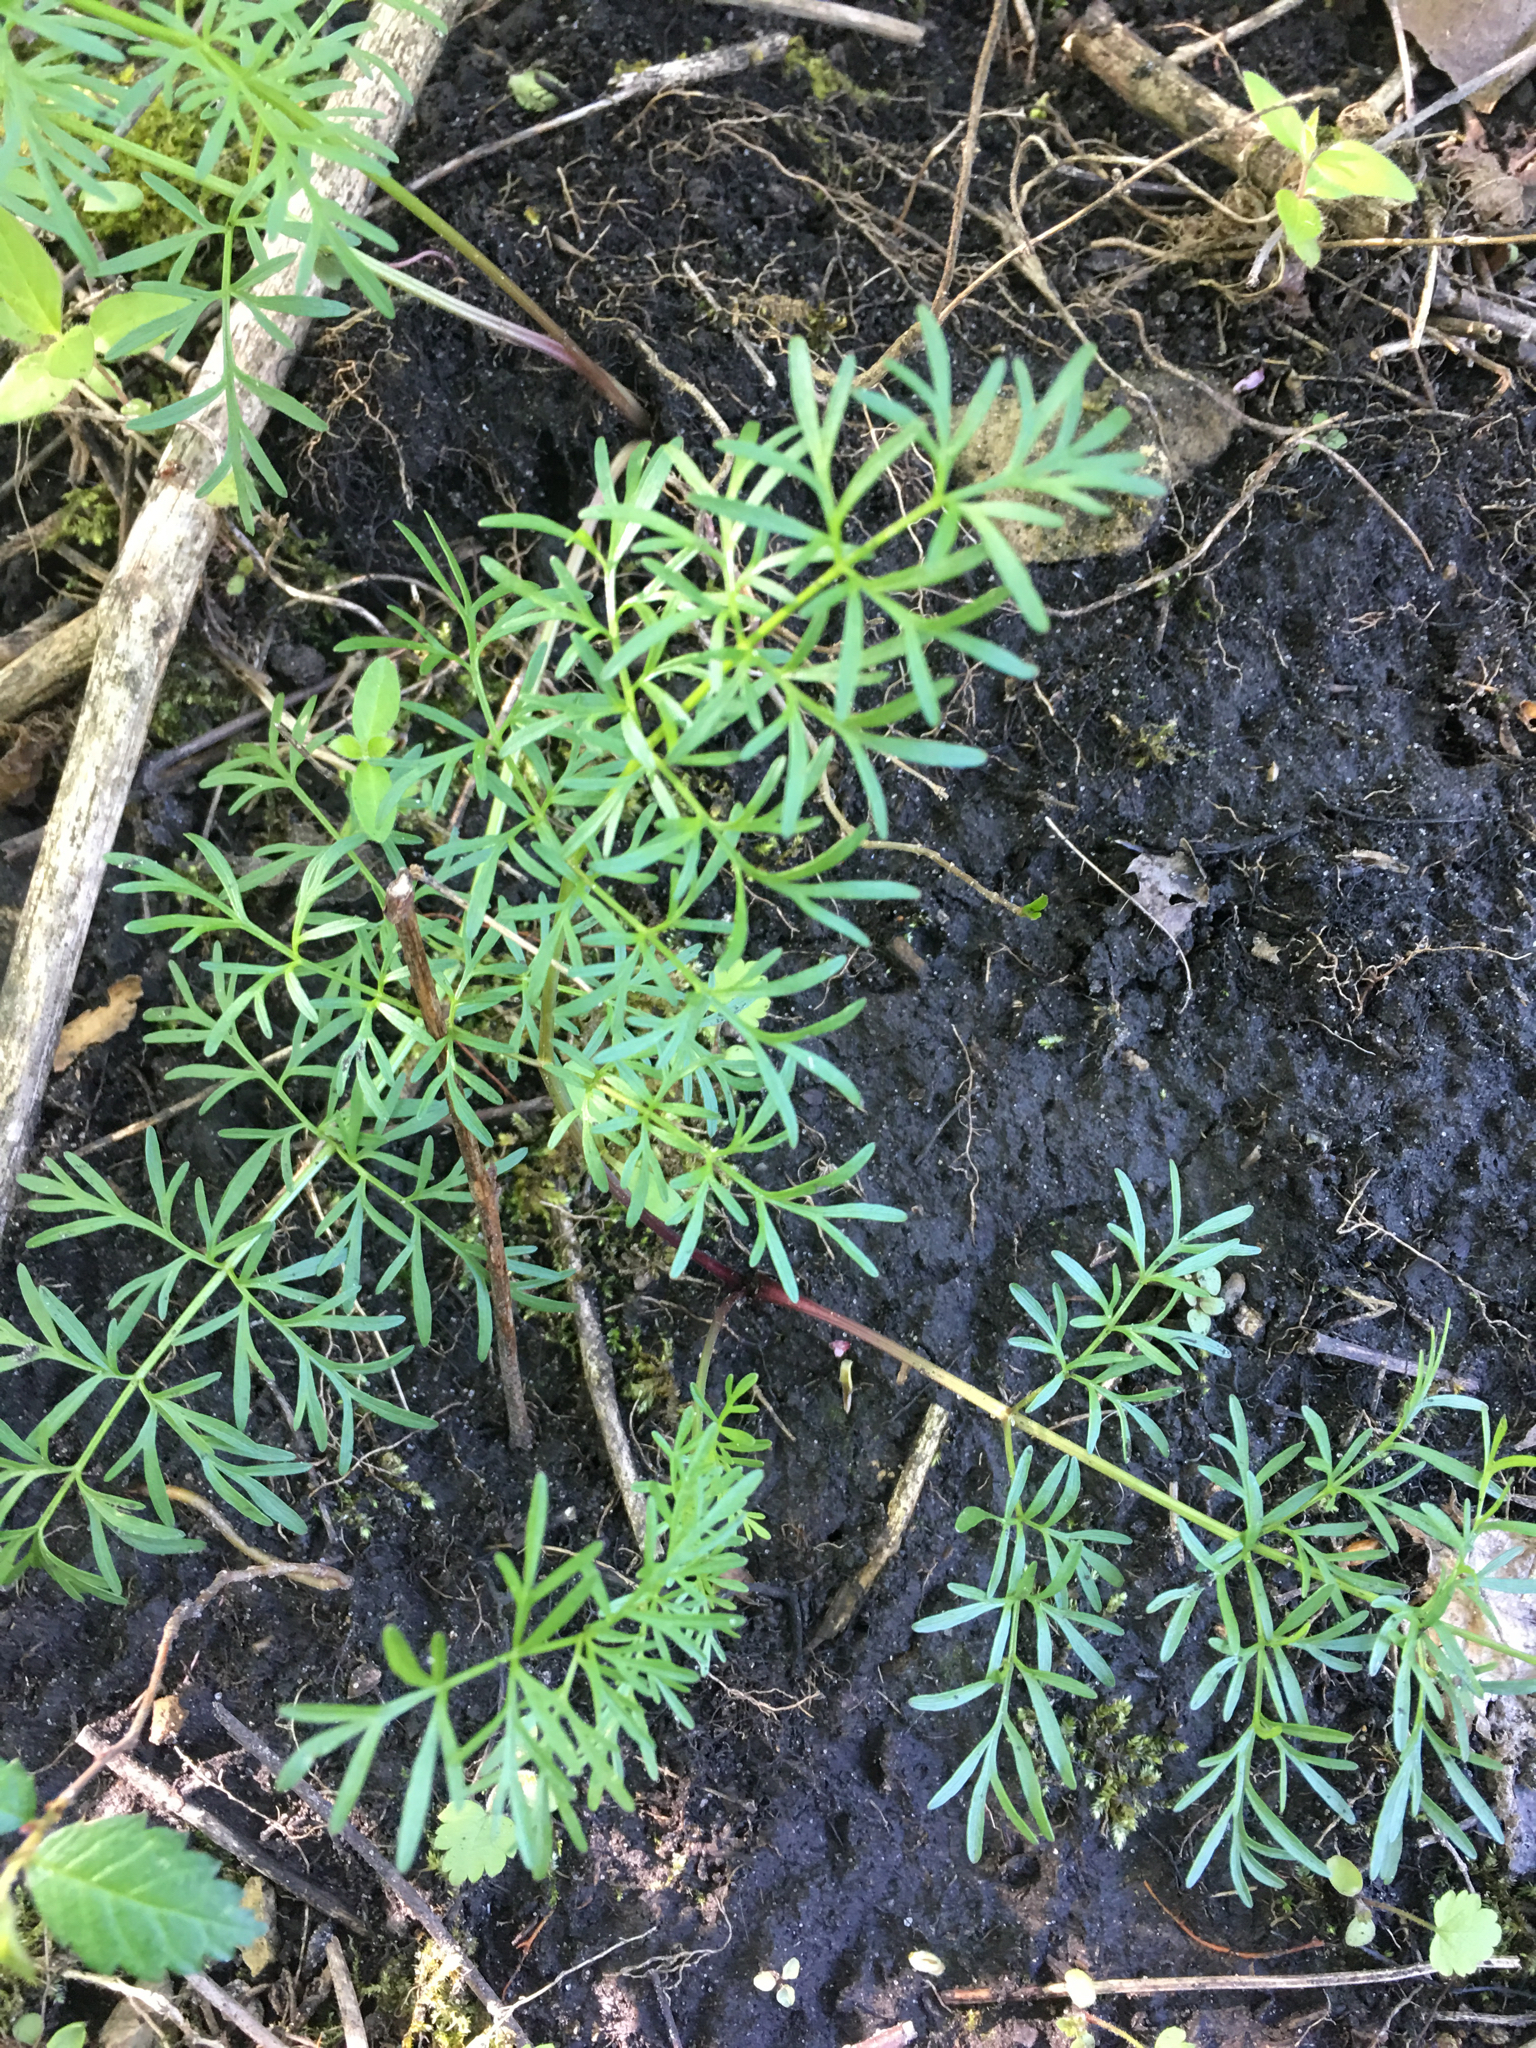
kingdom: Plantae
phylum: Tracheophyta
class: Magnoliopsida
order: Apiales
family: Apiaceae
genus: Perideridia
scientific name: Perideridia americana
